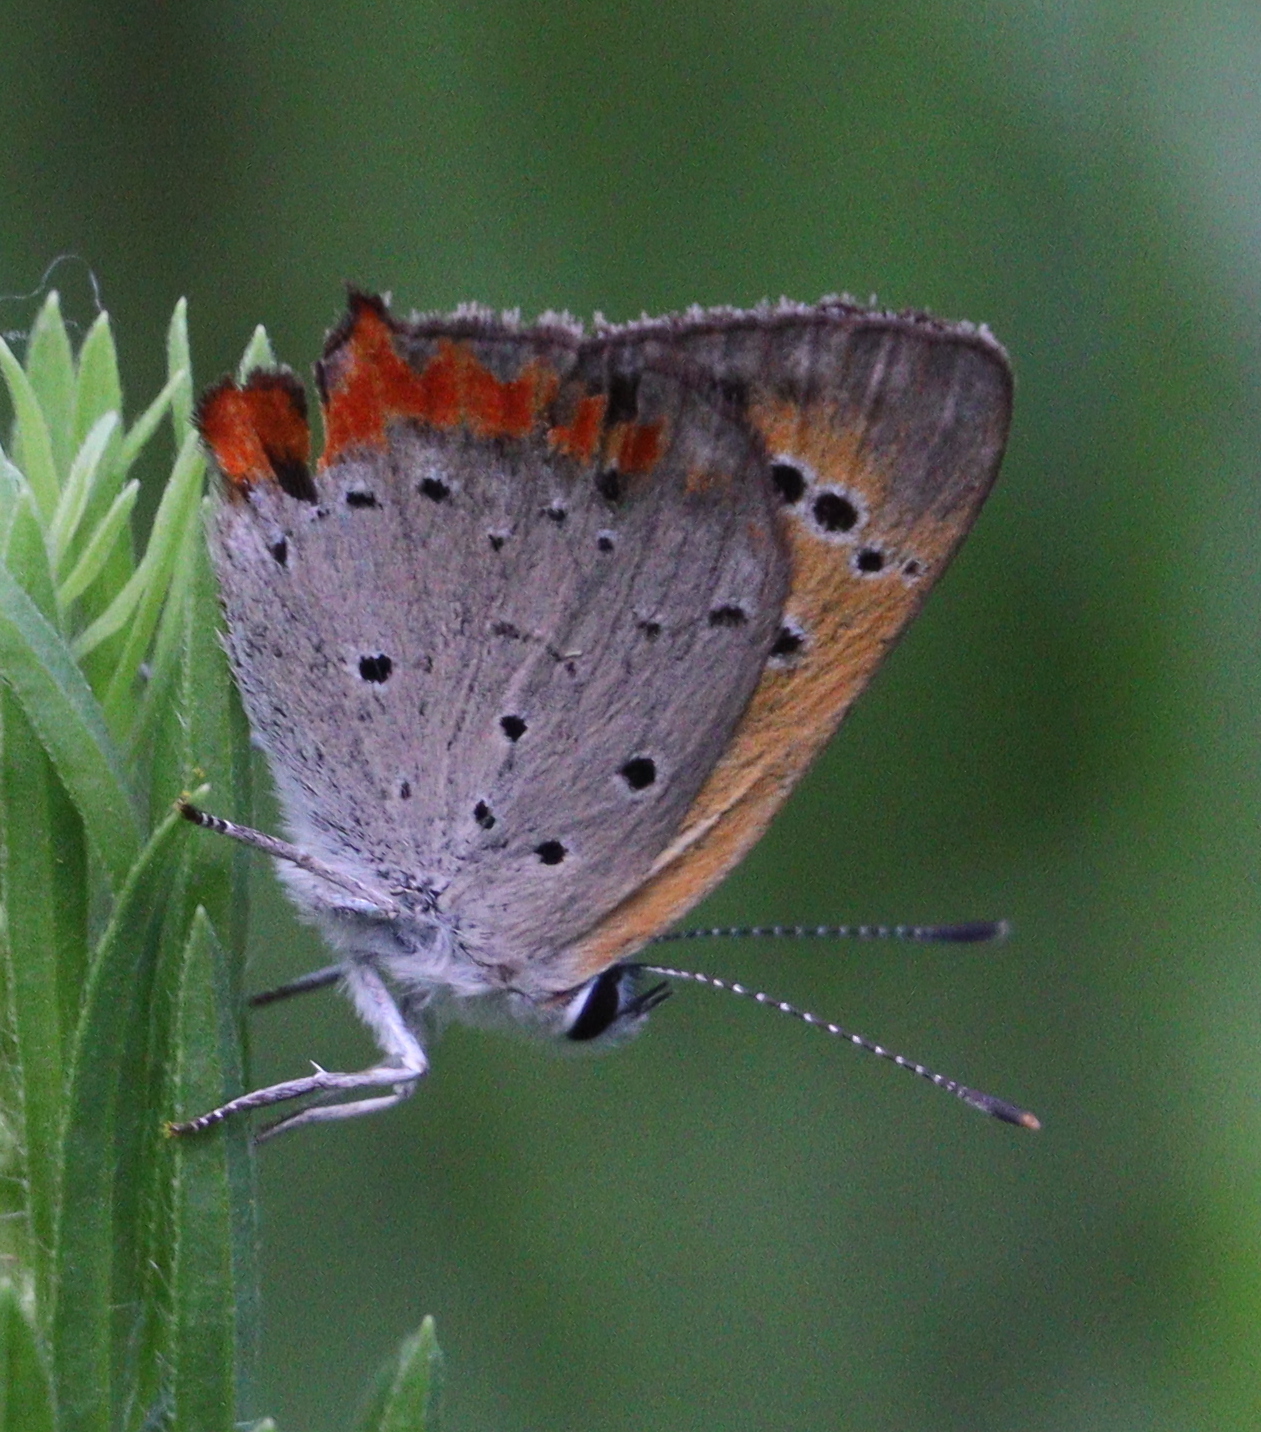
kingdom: Animalia
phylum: Arthropoda
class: Insecta
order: Lepidoptera
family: Lycaenidae
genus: Lycaena
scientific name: Lycaena phlaeas
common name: Small copper
